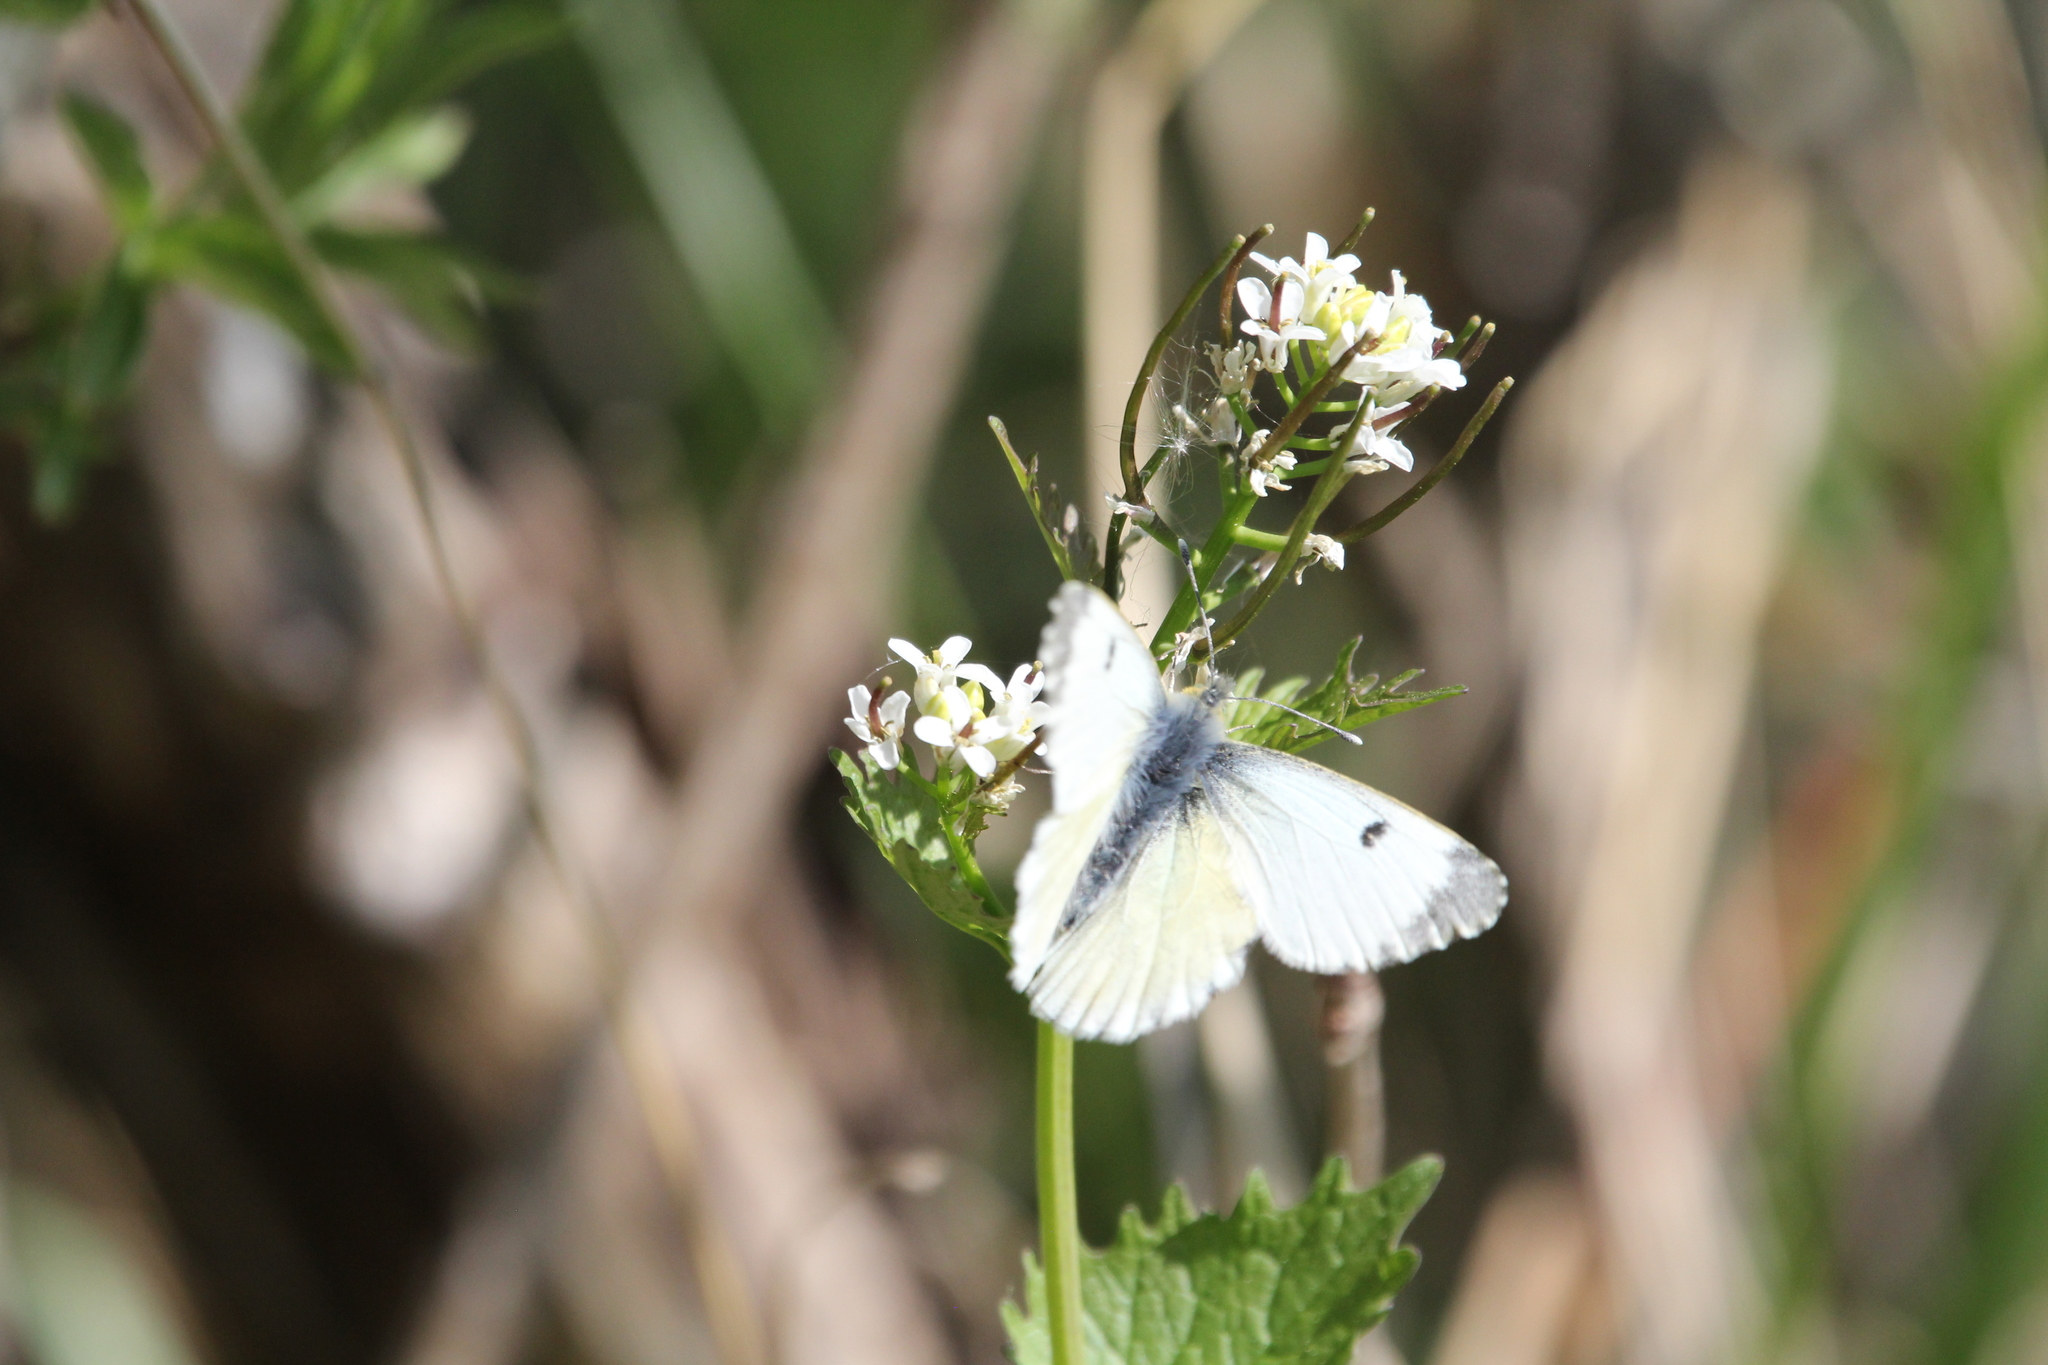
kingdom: Animalia
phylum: Arthropoda
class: Insecta
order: Lepidoptera
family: Pieridae
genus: Anthocharis
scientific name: Anthocharis cardamines
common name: Orange-tip
